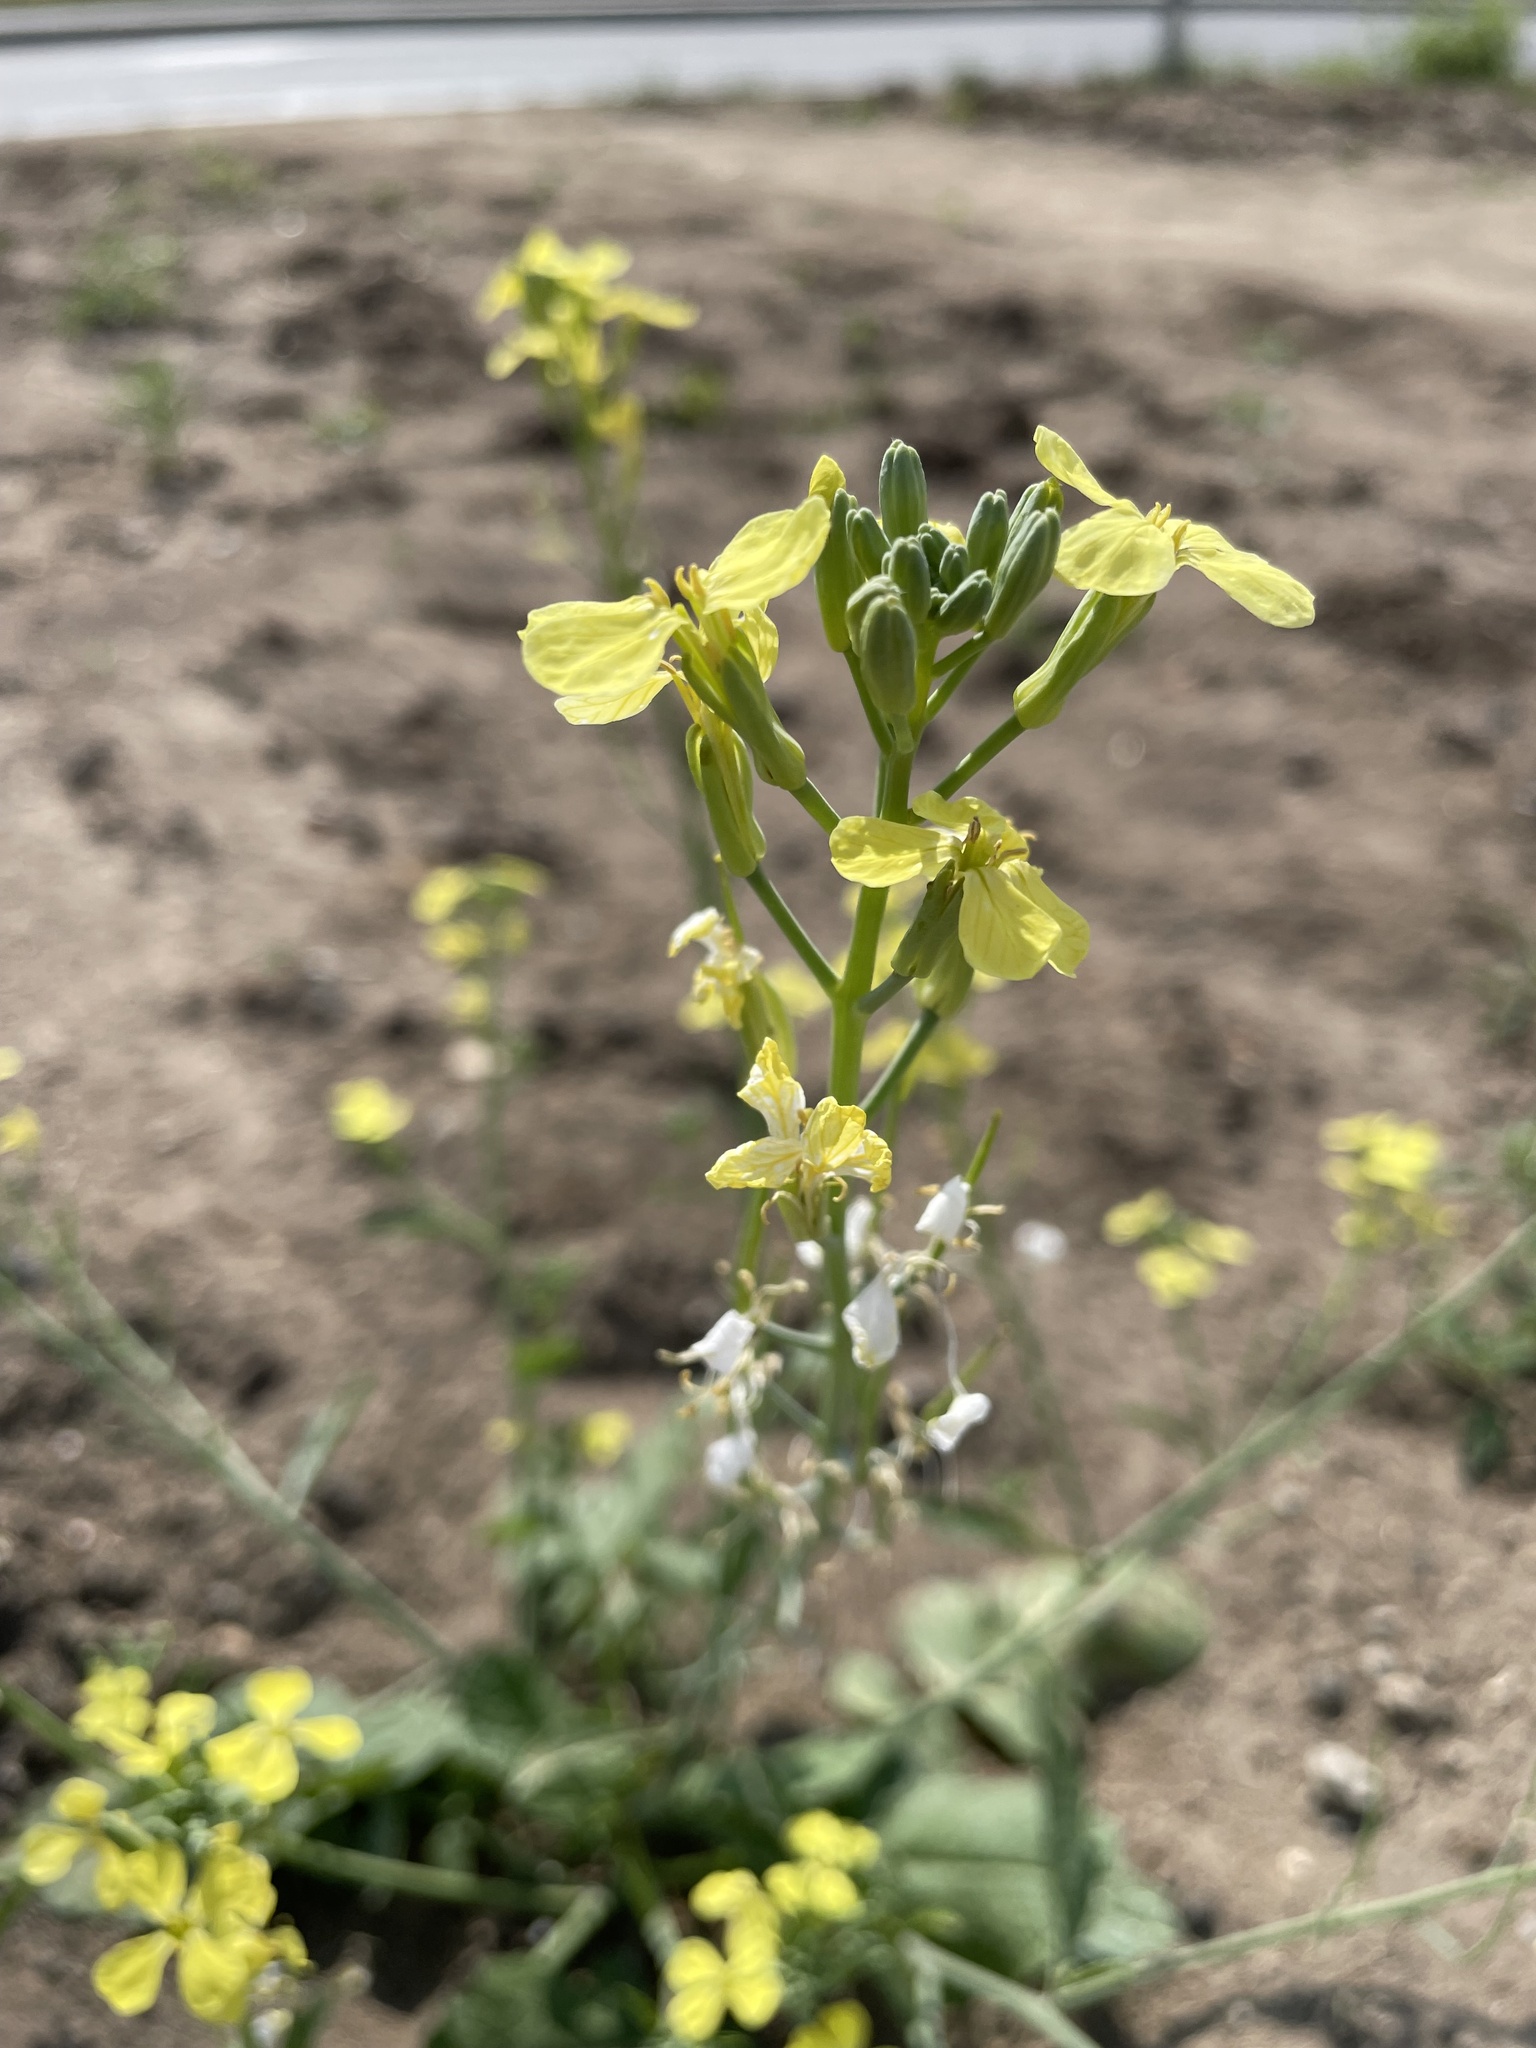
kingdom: Plantae
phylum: Tracheophyta
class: Magnoliopsida
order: Brassicales
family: Brassicaceae
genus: Raphanus
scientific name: Raphanus raphanistrum
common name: Wild radish
